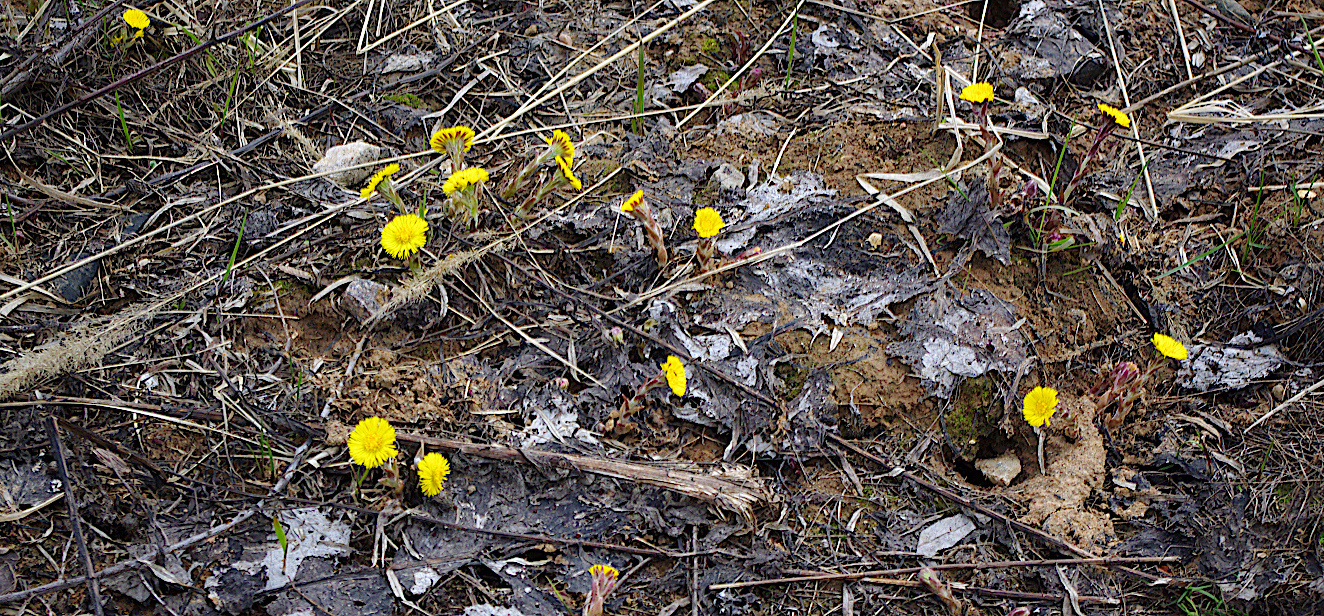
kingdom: Plantae
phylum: Tracheophyta
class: Magnoliopsida
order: Asterales
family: Asteraceae
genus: Tussilago
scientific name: Tussilago farfara
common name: Coltsfoot
